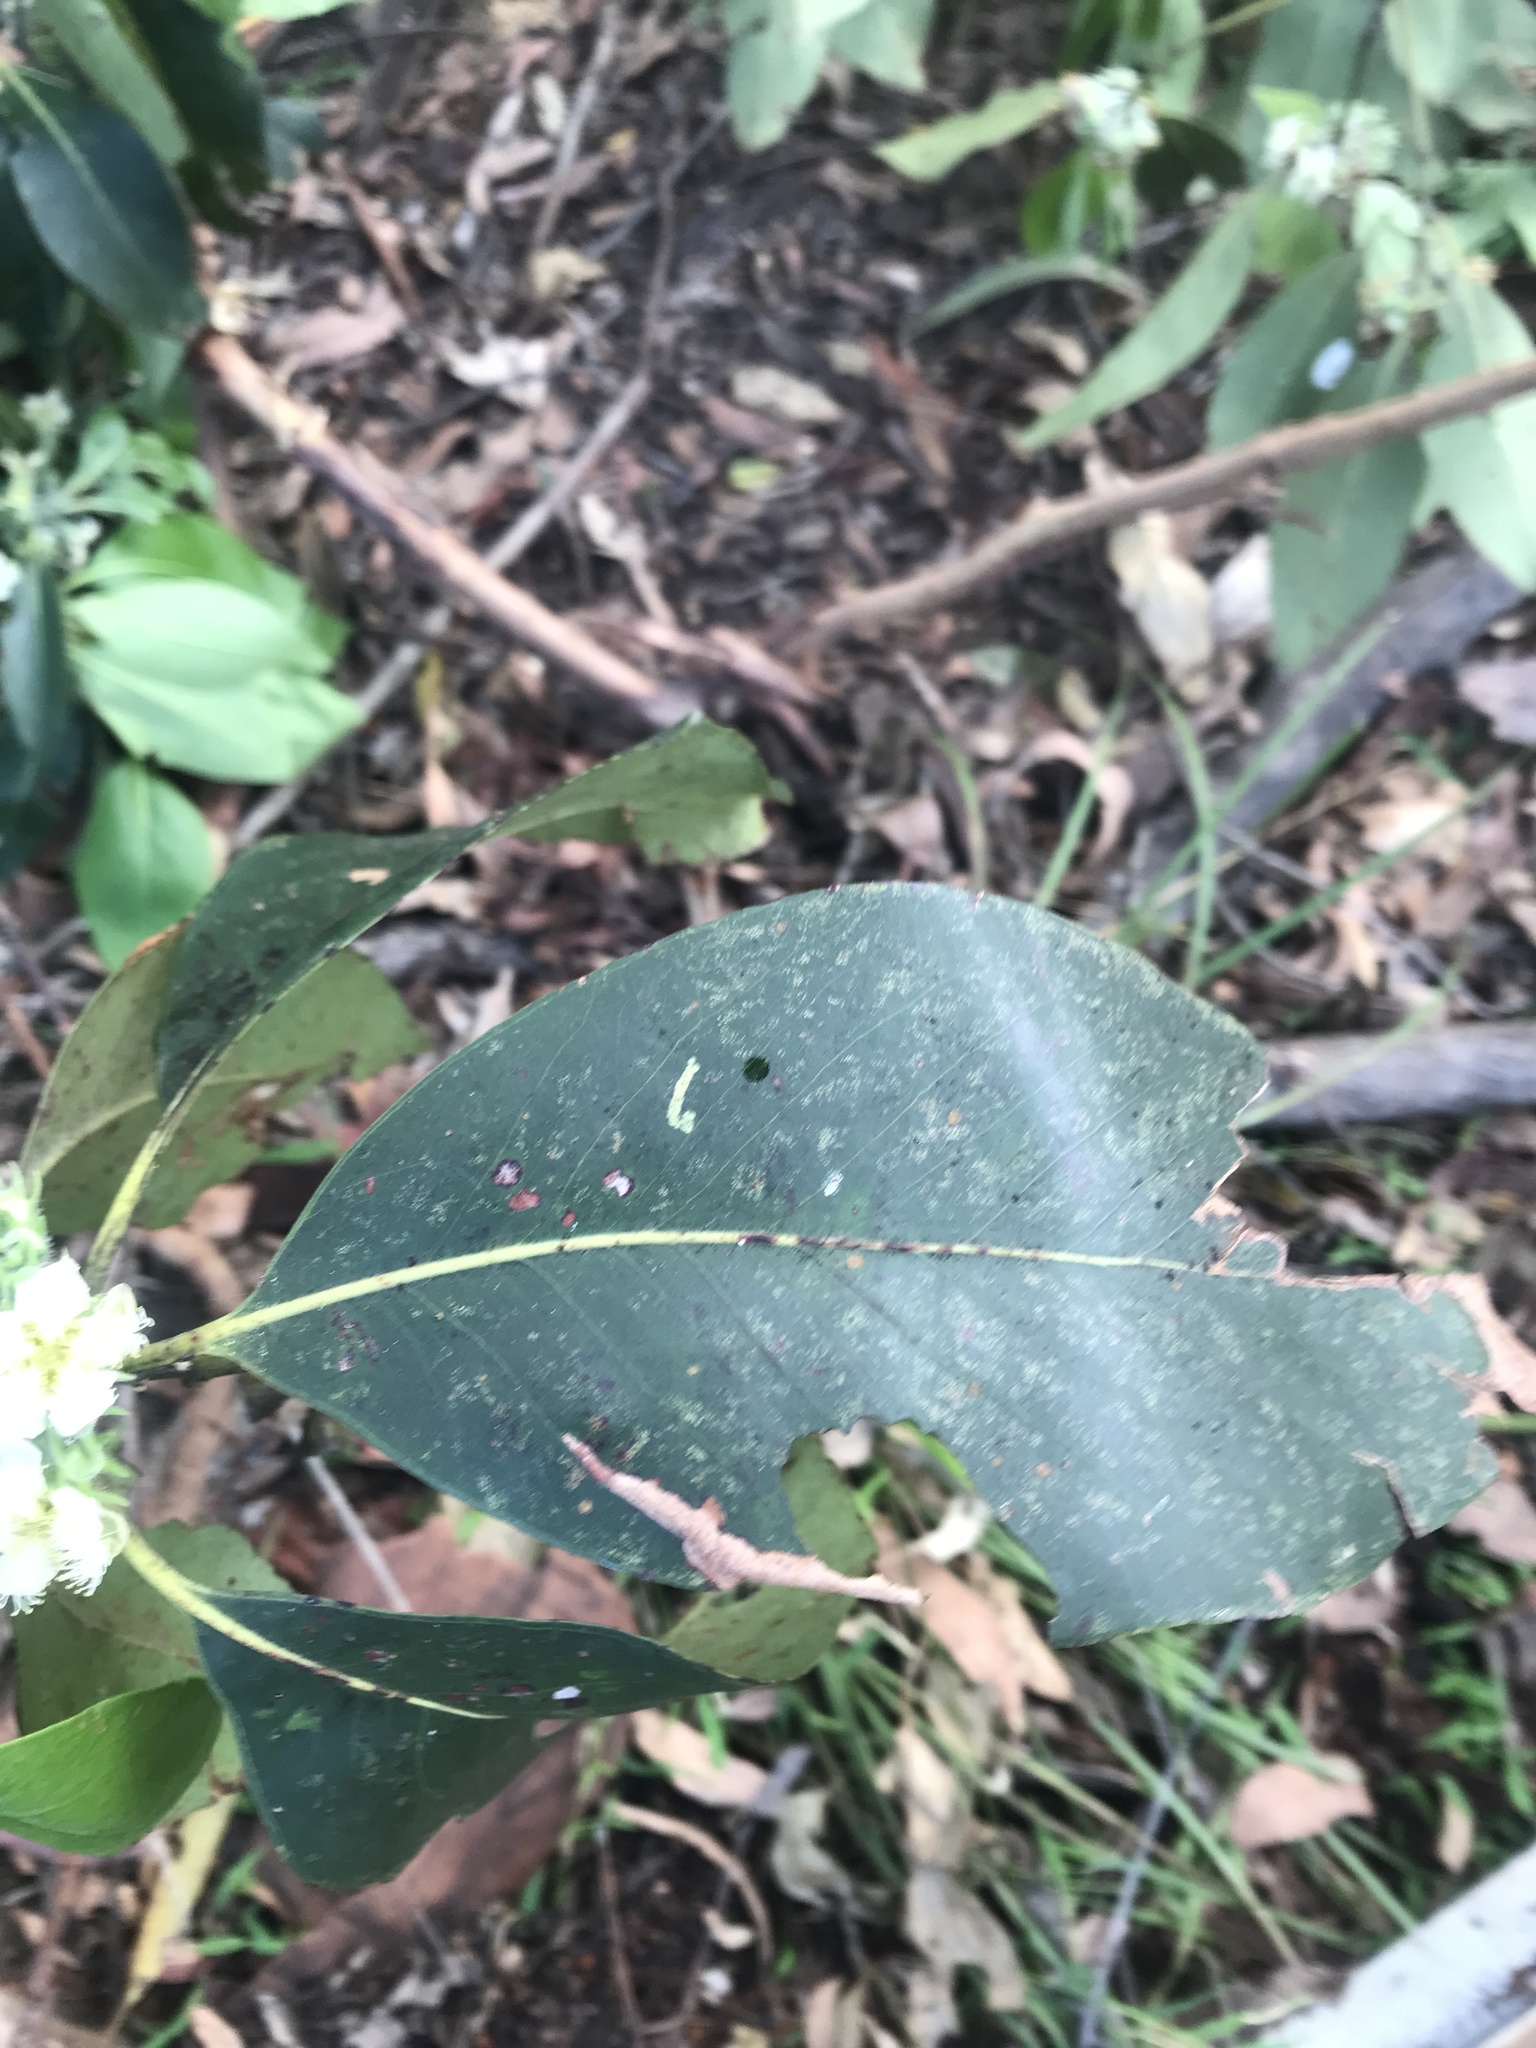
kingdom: Plantae
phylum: Tracheophyta
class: Magnoliopsida
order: Myrtales
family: Myrtaceae
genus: Lophostemon
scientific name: Lophostemon confertus
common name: Brisbane box
